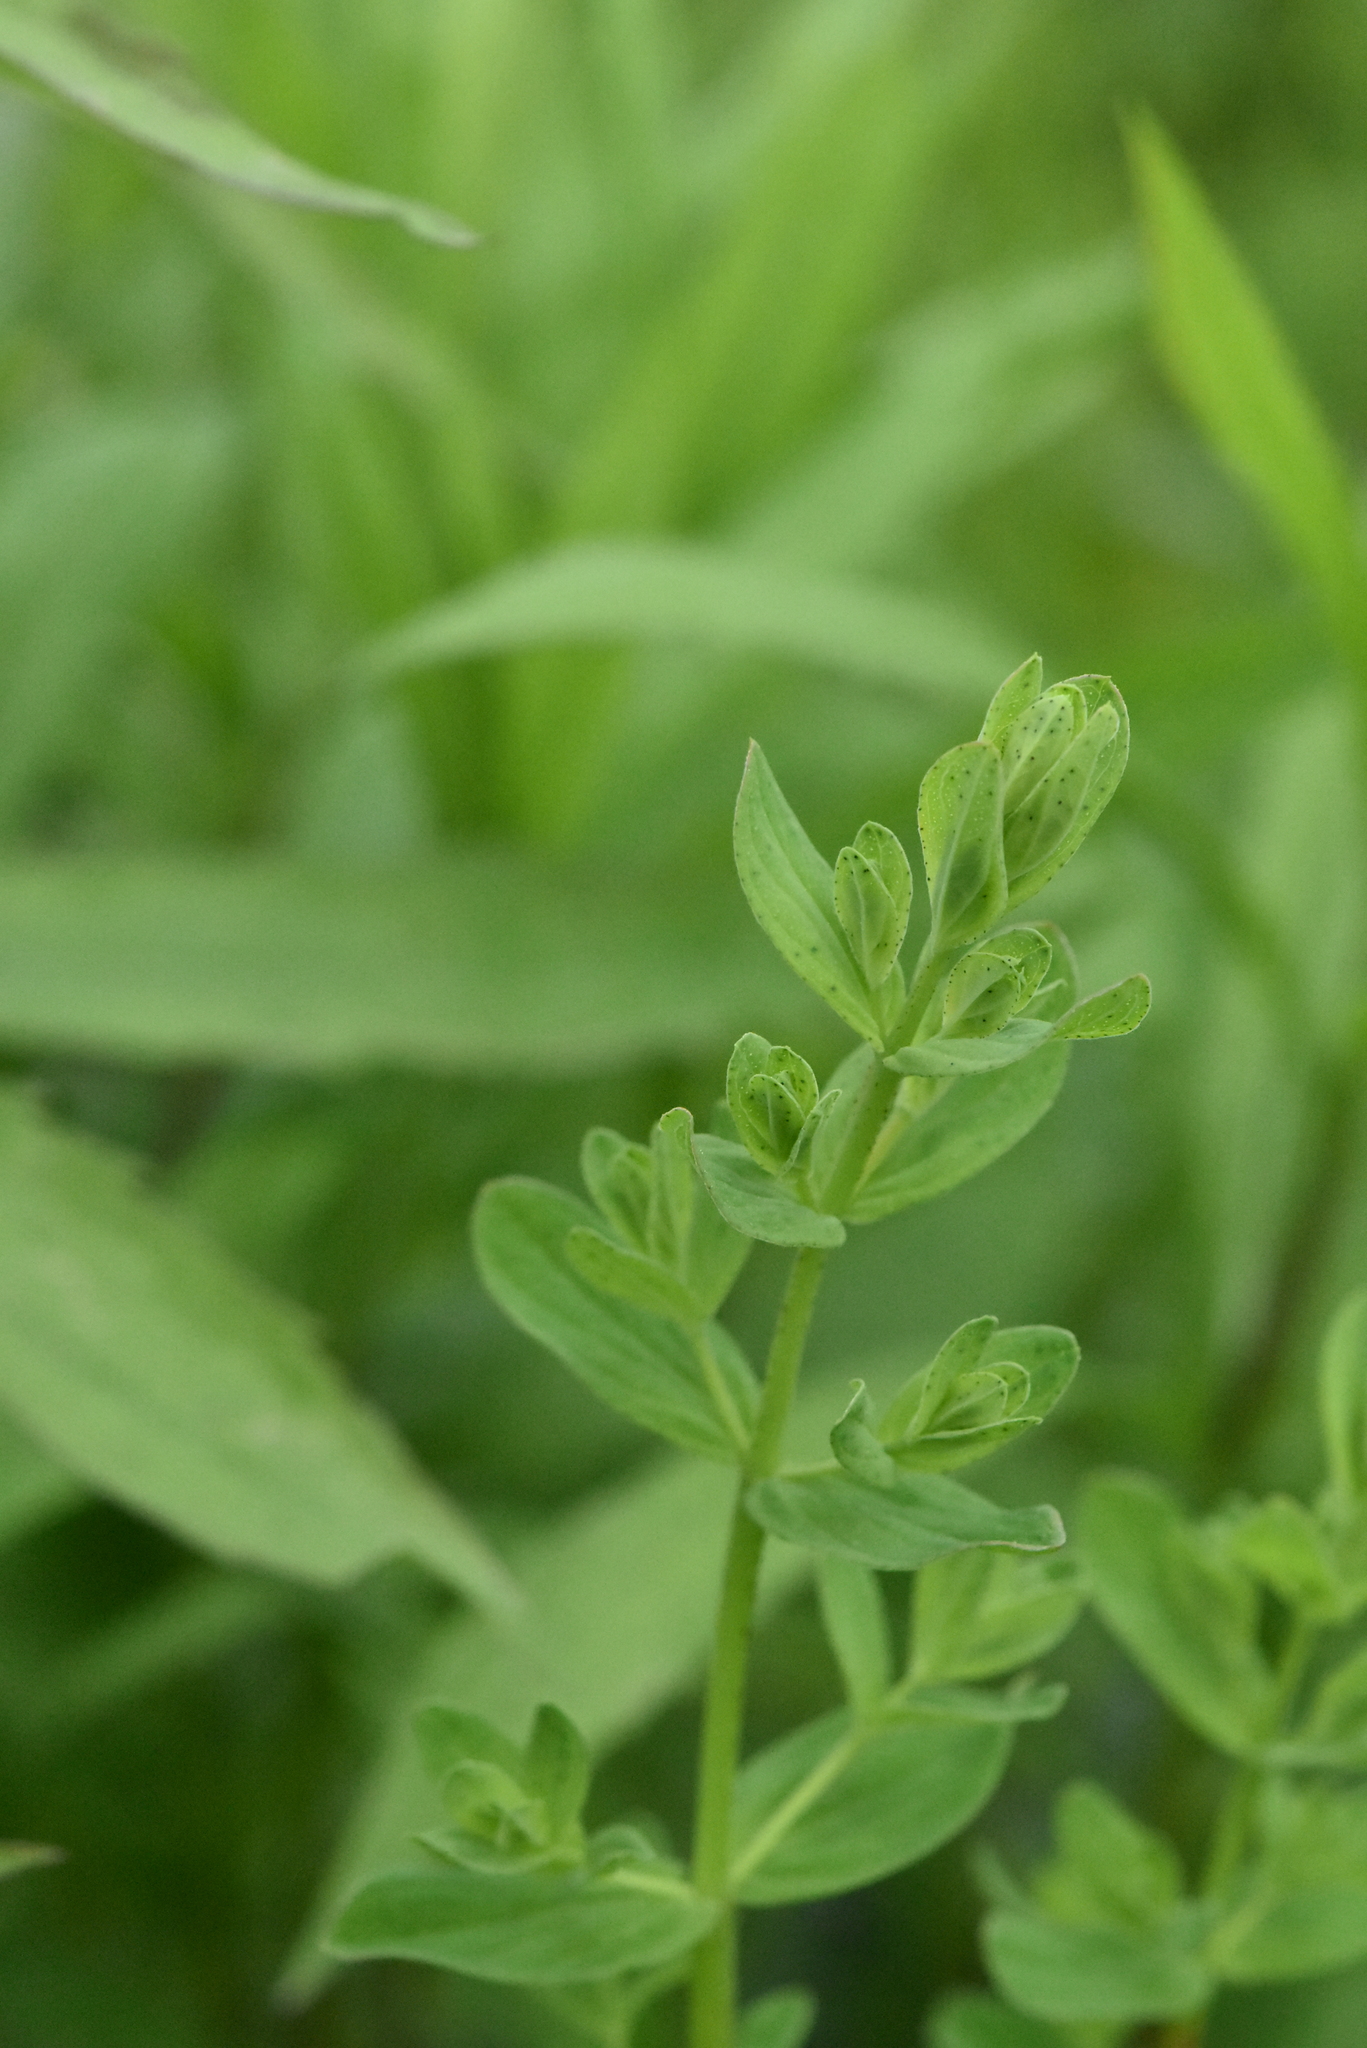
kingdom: Plantae
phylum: Tracheophyta
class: Magnoliopsida
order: Malpighiales
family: Hypericaceae
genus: Hypericum
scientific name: Hypericum perforatum
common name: Common st. johnswort
